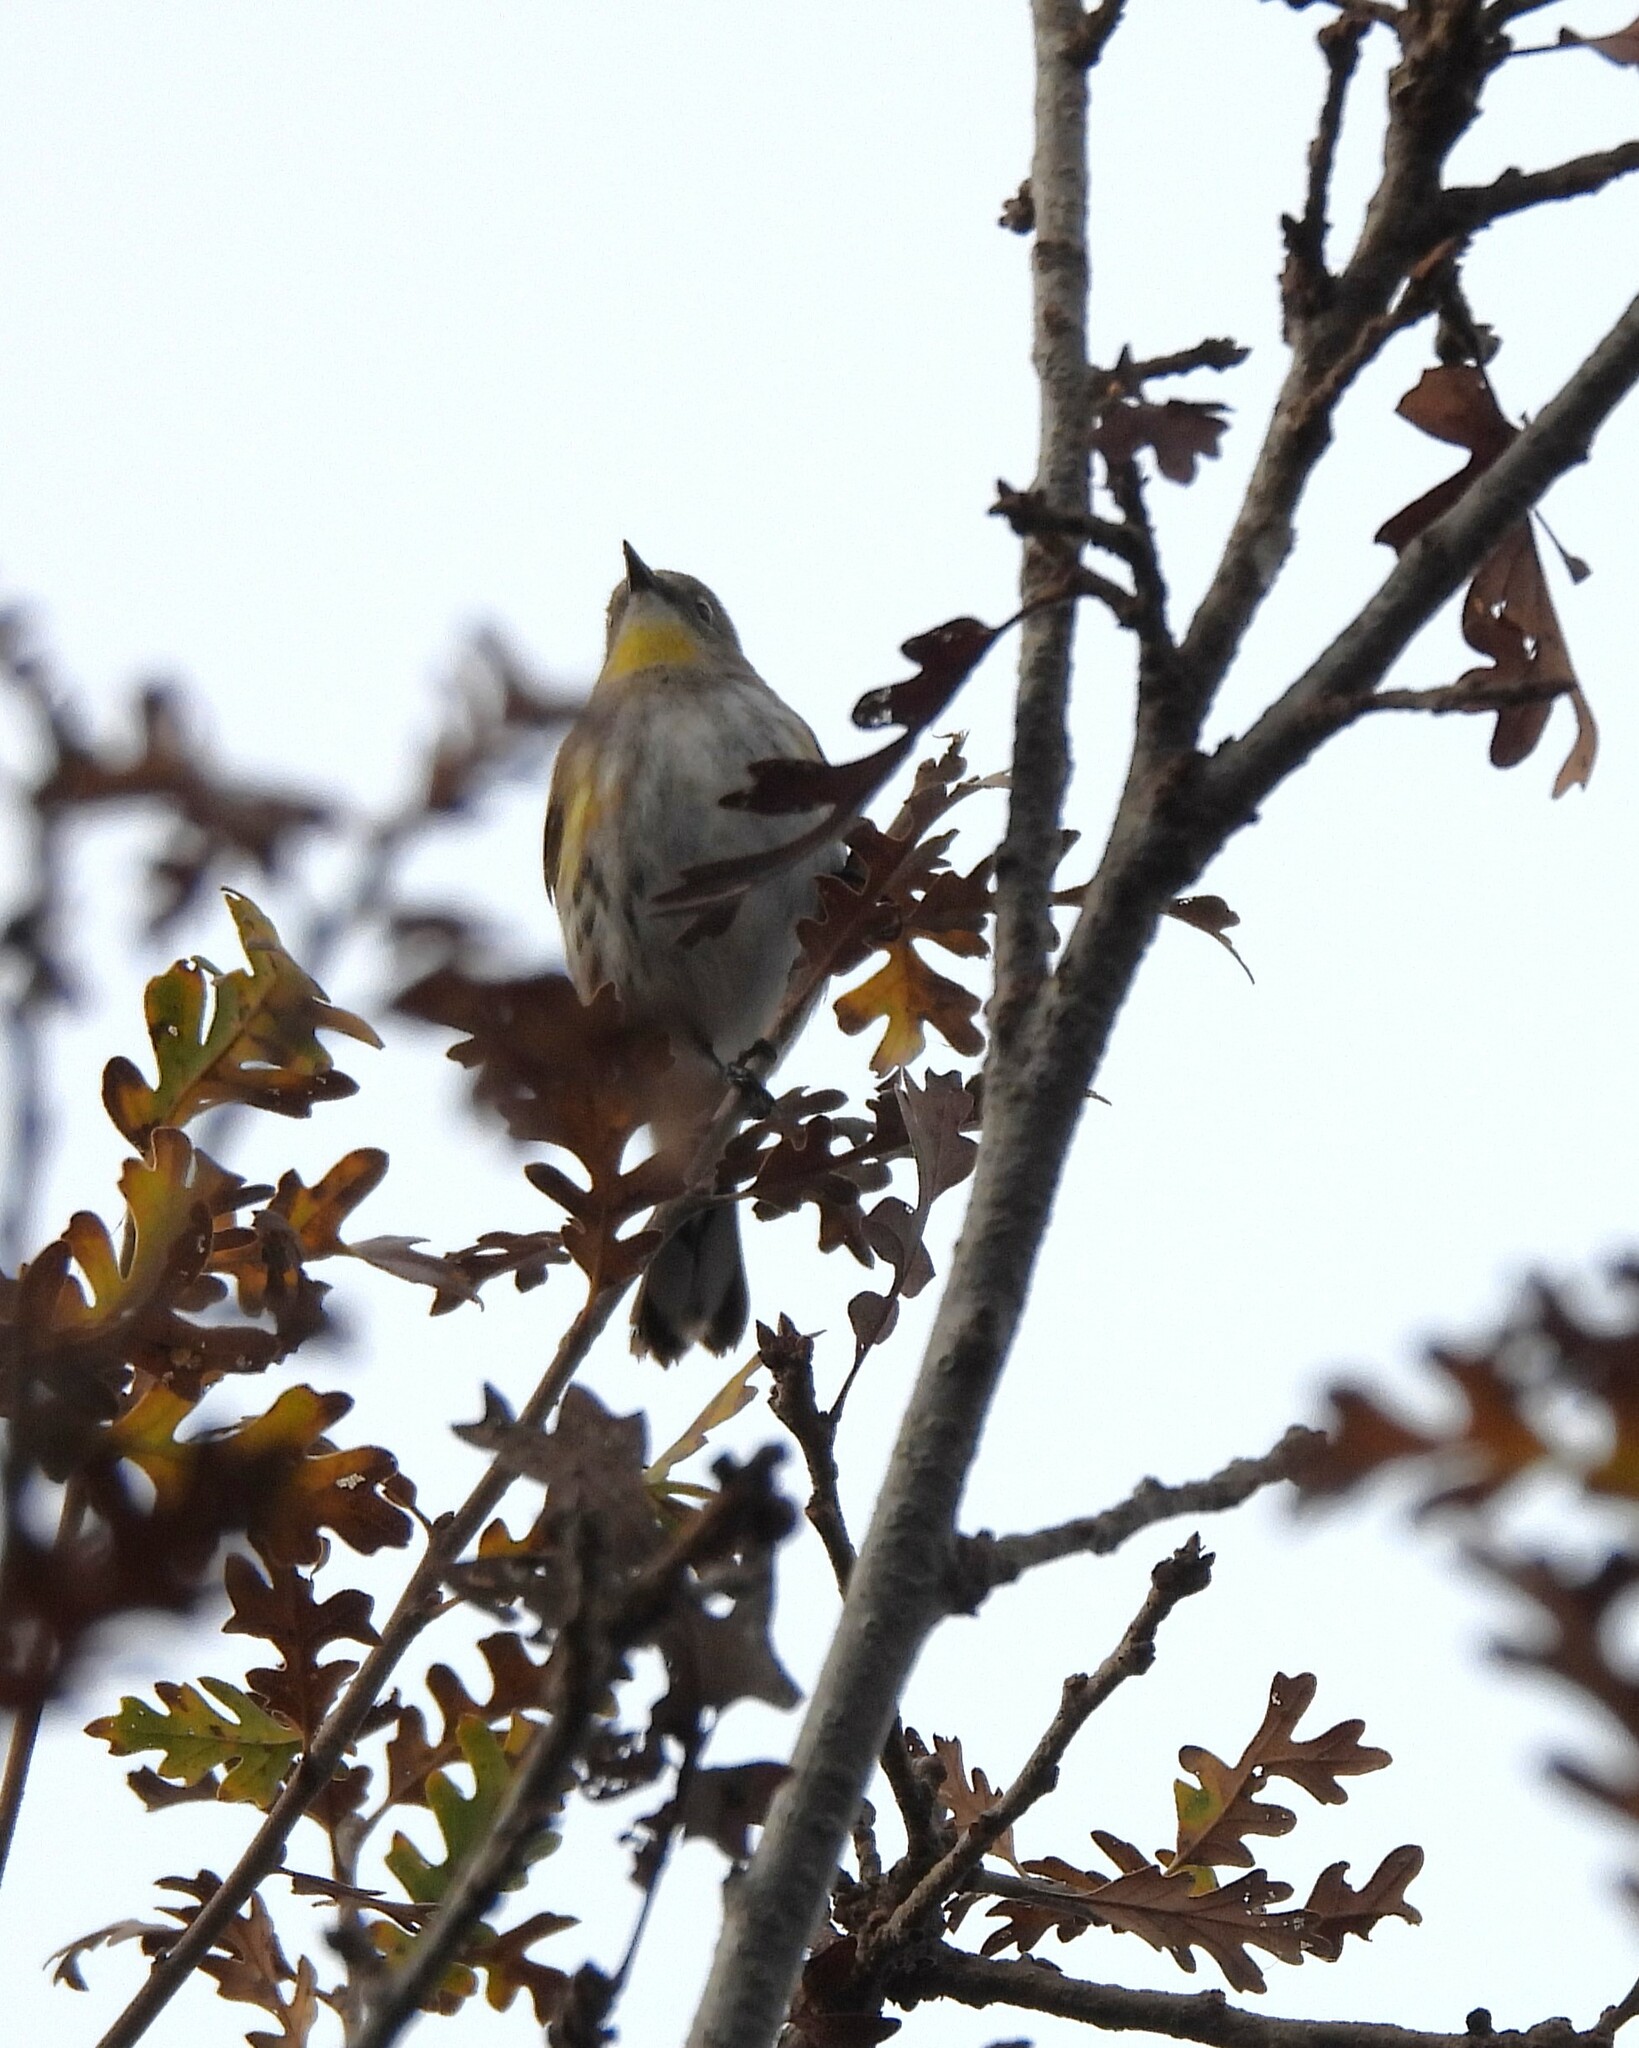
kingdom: Animalia
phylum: Chordata
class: Aves
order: Passeriformes
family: Parulidae
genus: Setophaga
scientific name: Setophaga coronata
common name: Myrtle warbler
